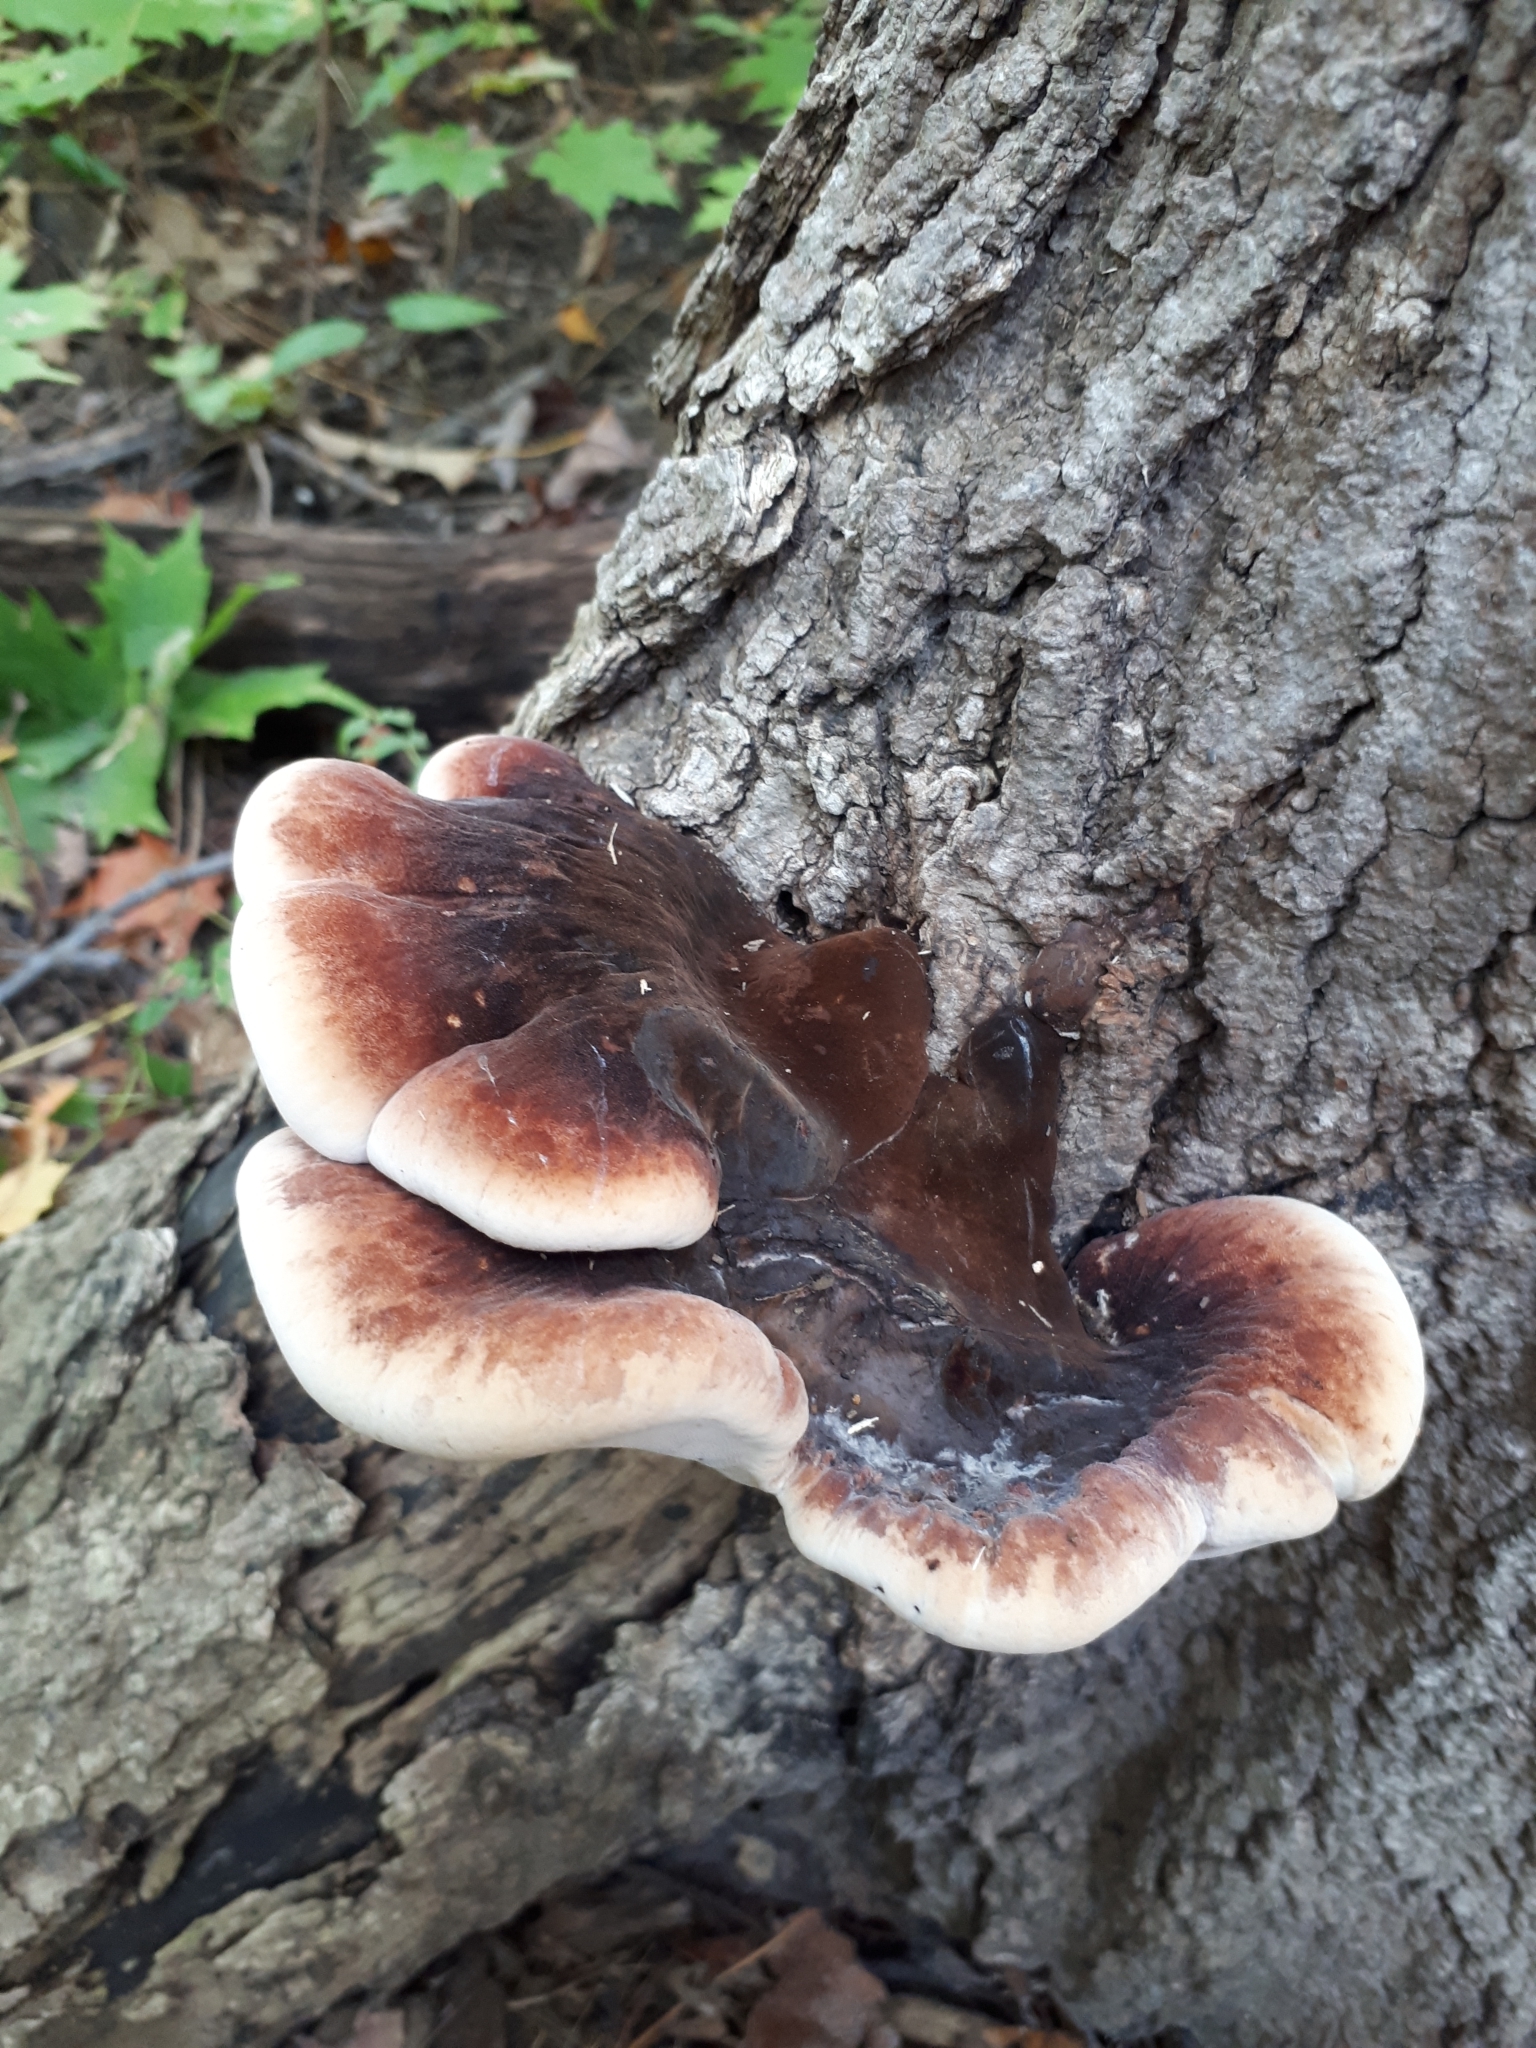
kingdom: Fungi
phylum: Basidiomycota
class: Agaricomycetes
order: Polyporales
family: Ischnodermataceae
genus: Ischnoderma
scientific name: Ischnoderma resinosum
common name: Resinous polypore
